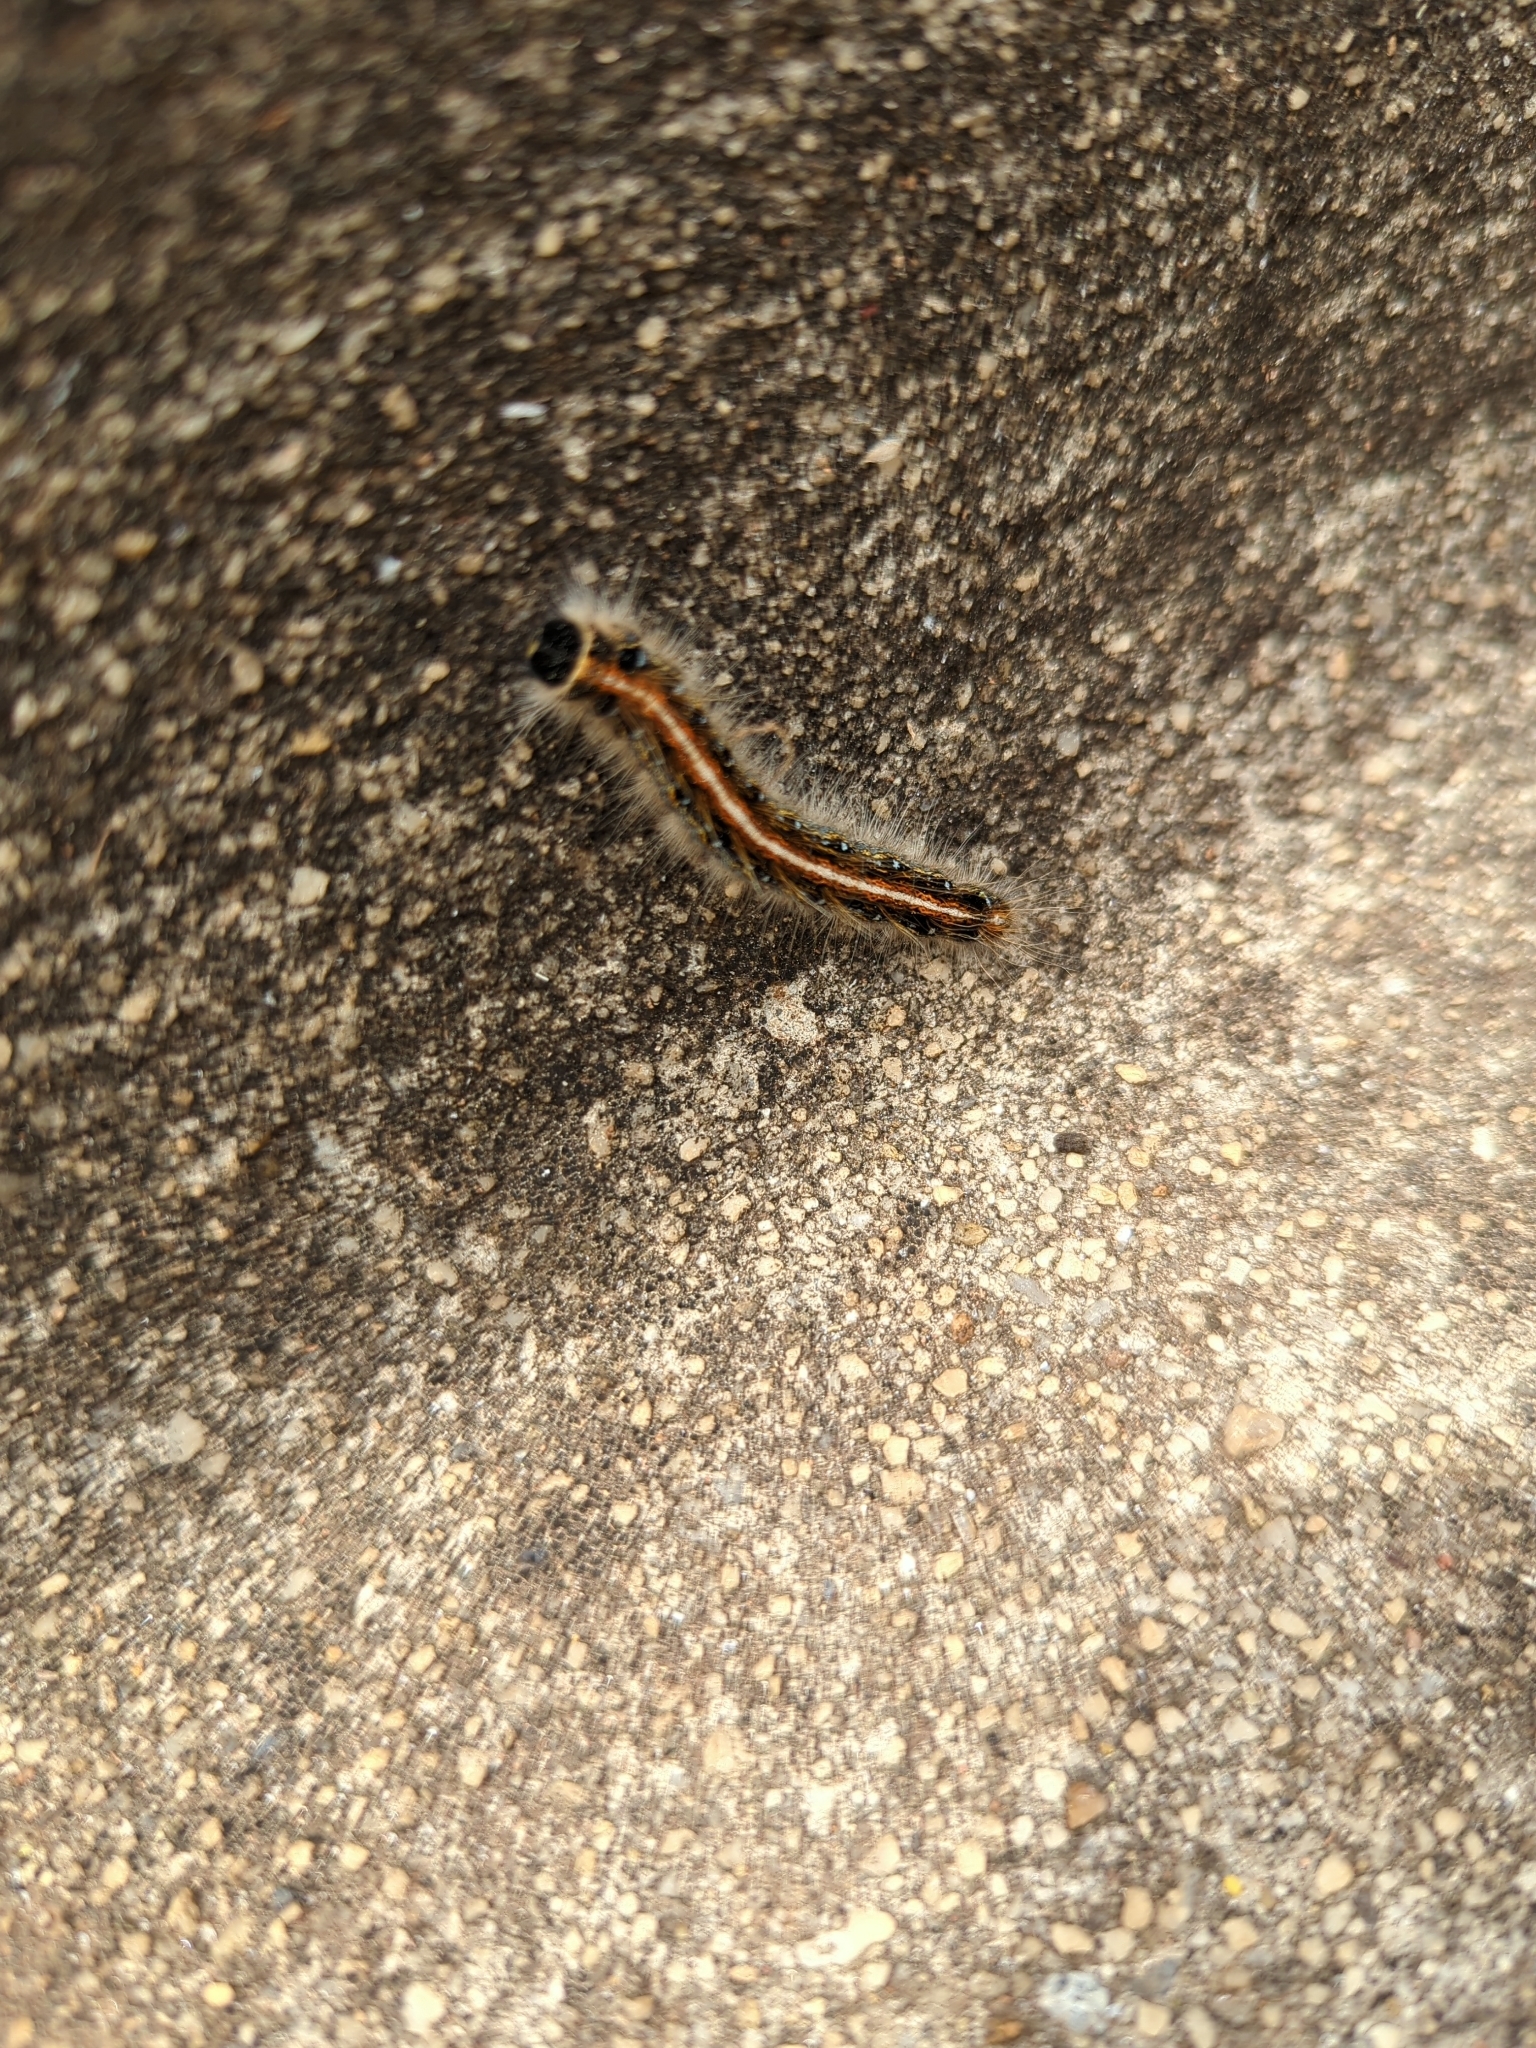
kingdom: Animalia
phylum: Arthropoda
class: Insecta
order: Lepidoptera
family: Lasiocampidae
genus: Malacosoma
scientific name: Malacosoma americana
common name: Eastern tent caterpillar moth
